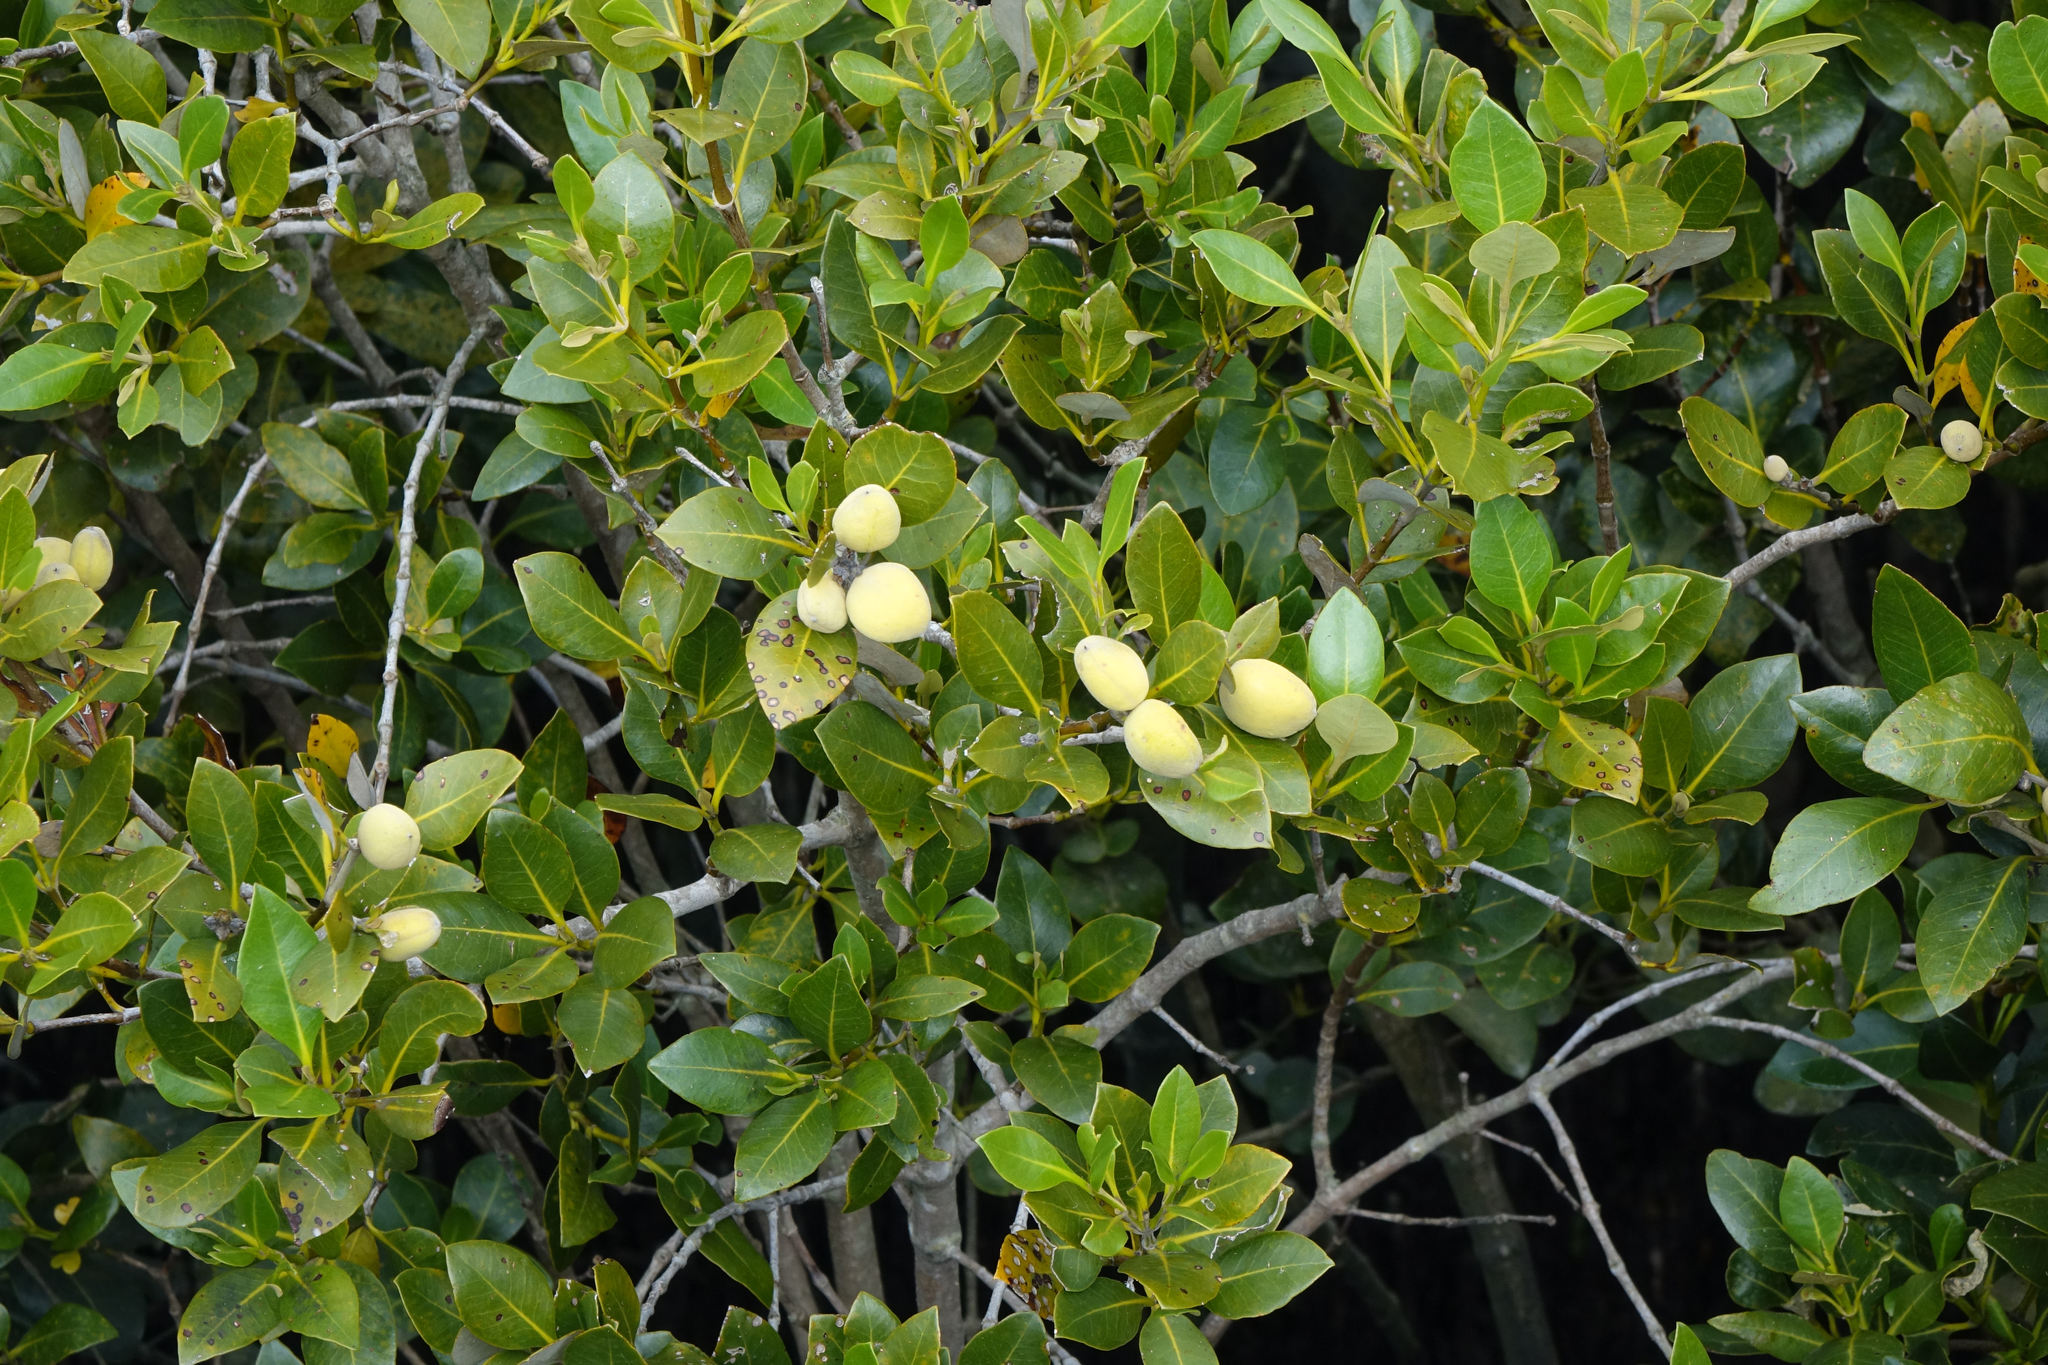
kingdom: Plantae
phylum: Tracheophyta
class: Magnoliopsida
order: Lamiales
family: Acanthaceae
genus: Avicennia
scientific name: Avicennia marina
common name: Gray mangrove
